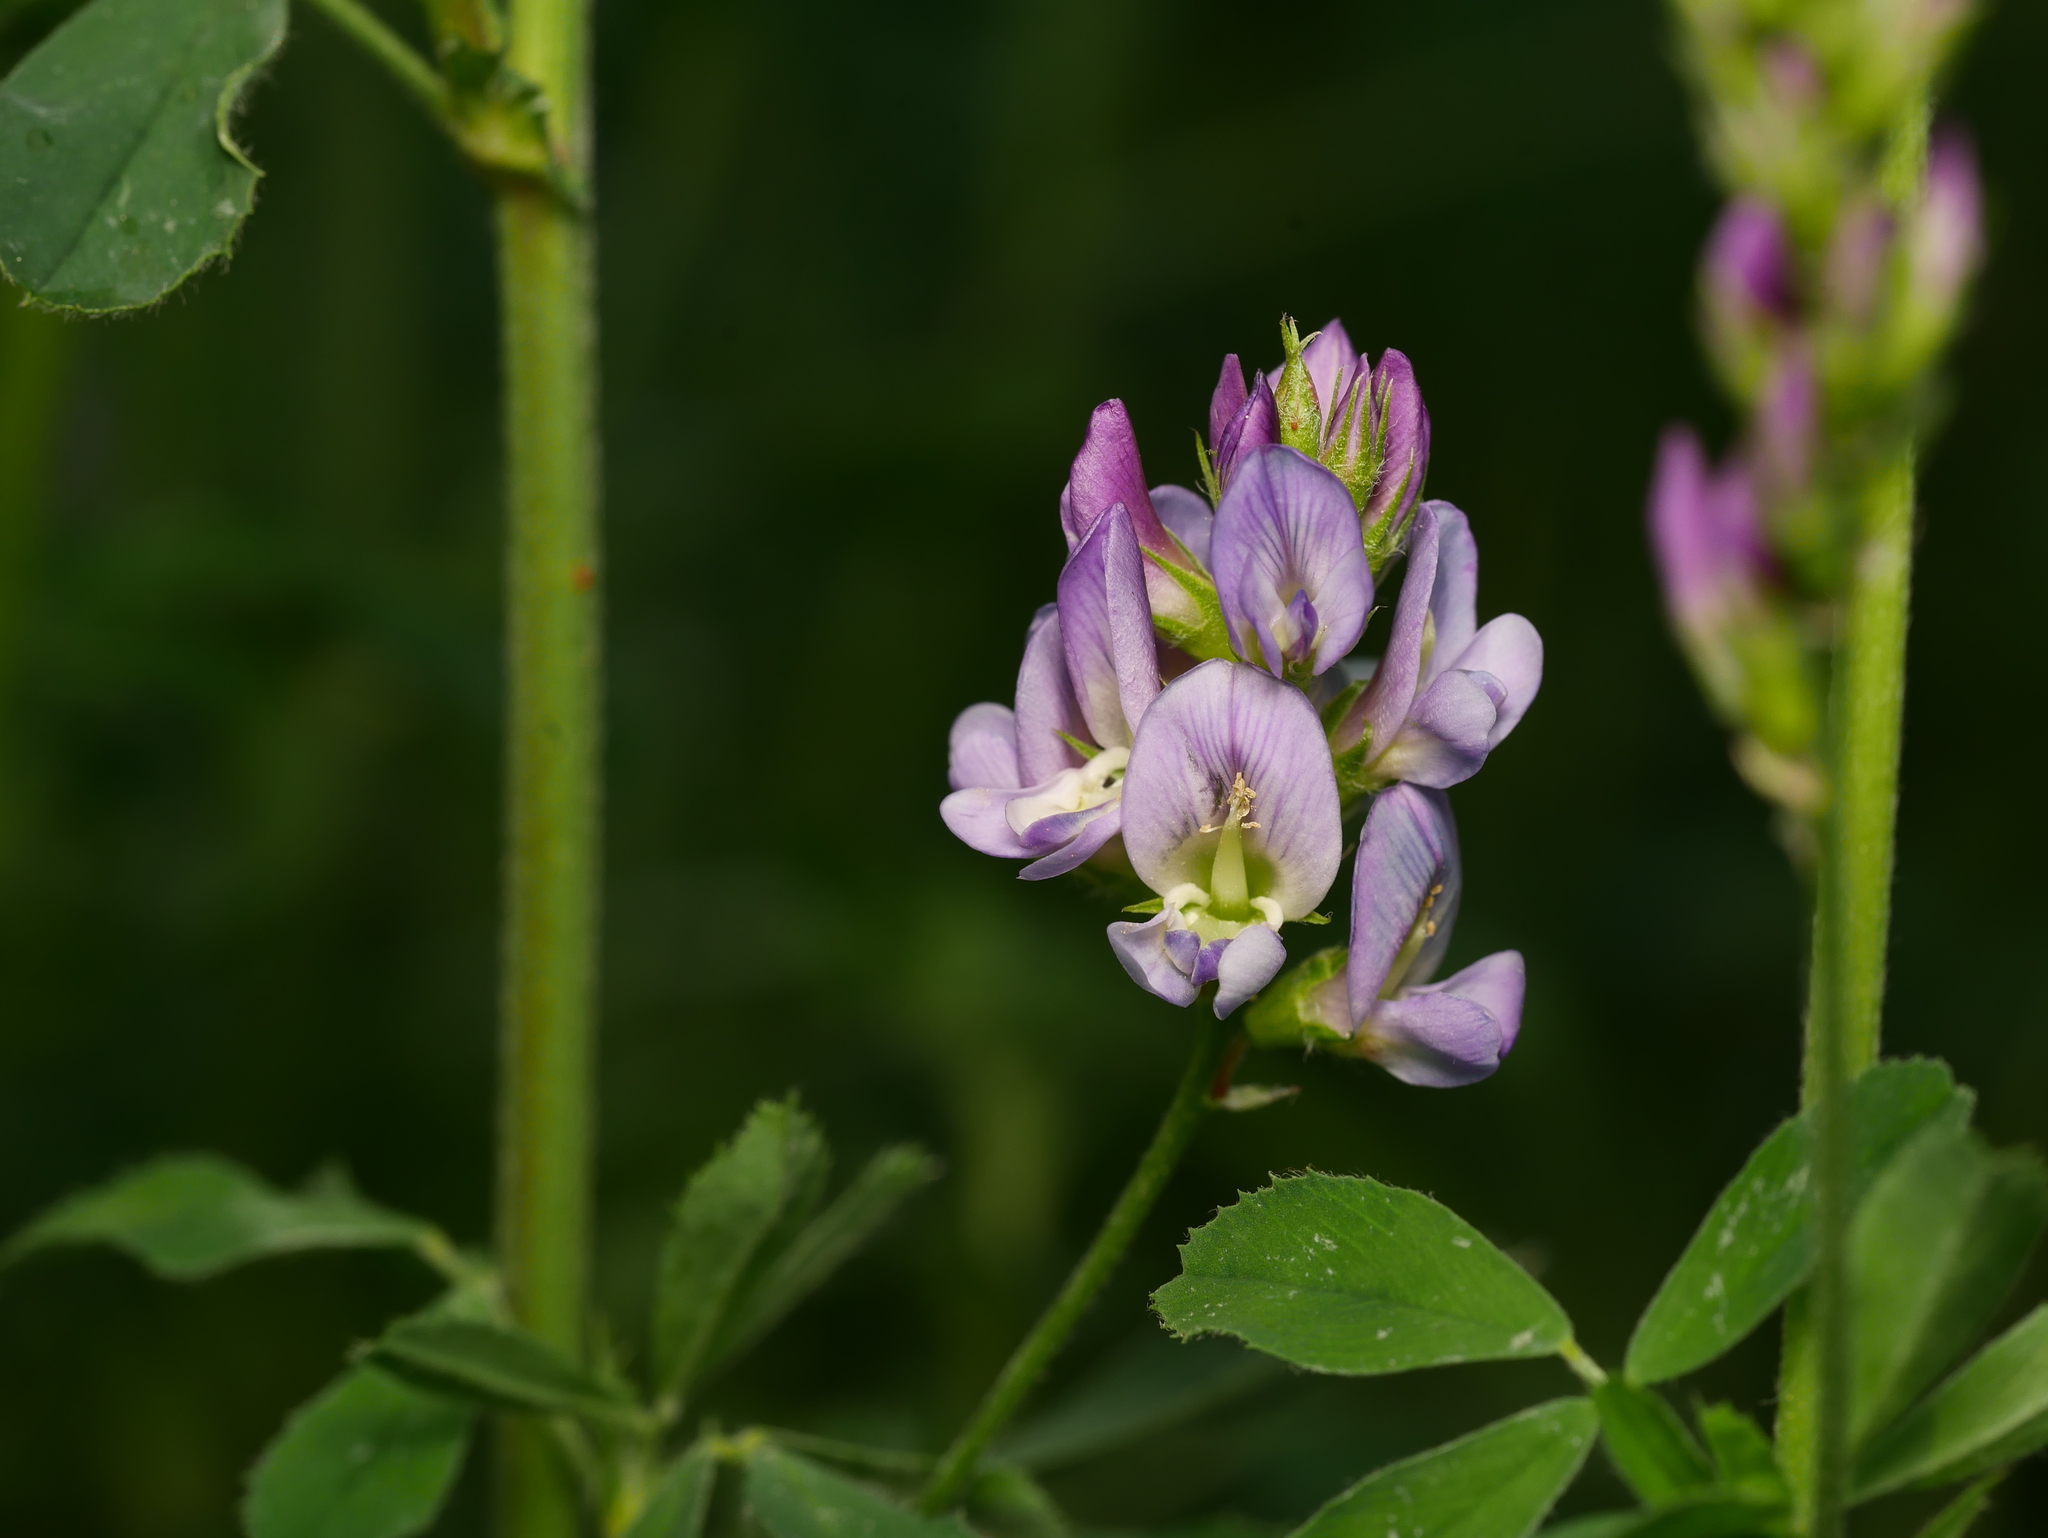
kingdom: Plantae
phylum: Tracheophyta
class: Magnoliopsida
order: Fabales
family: Fabaceae
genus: Medicago
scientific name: Medicago sativa
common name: Alfalfa
